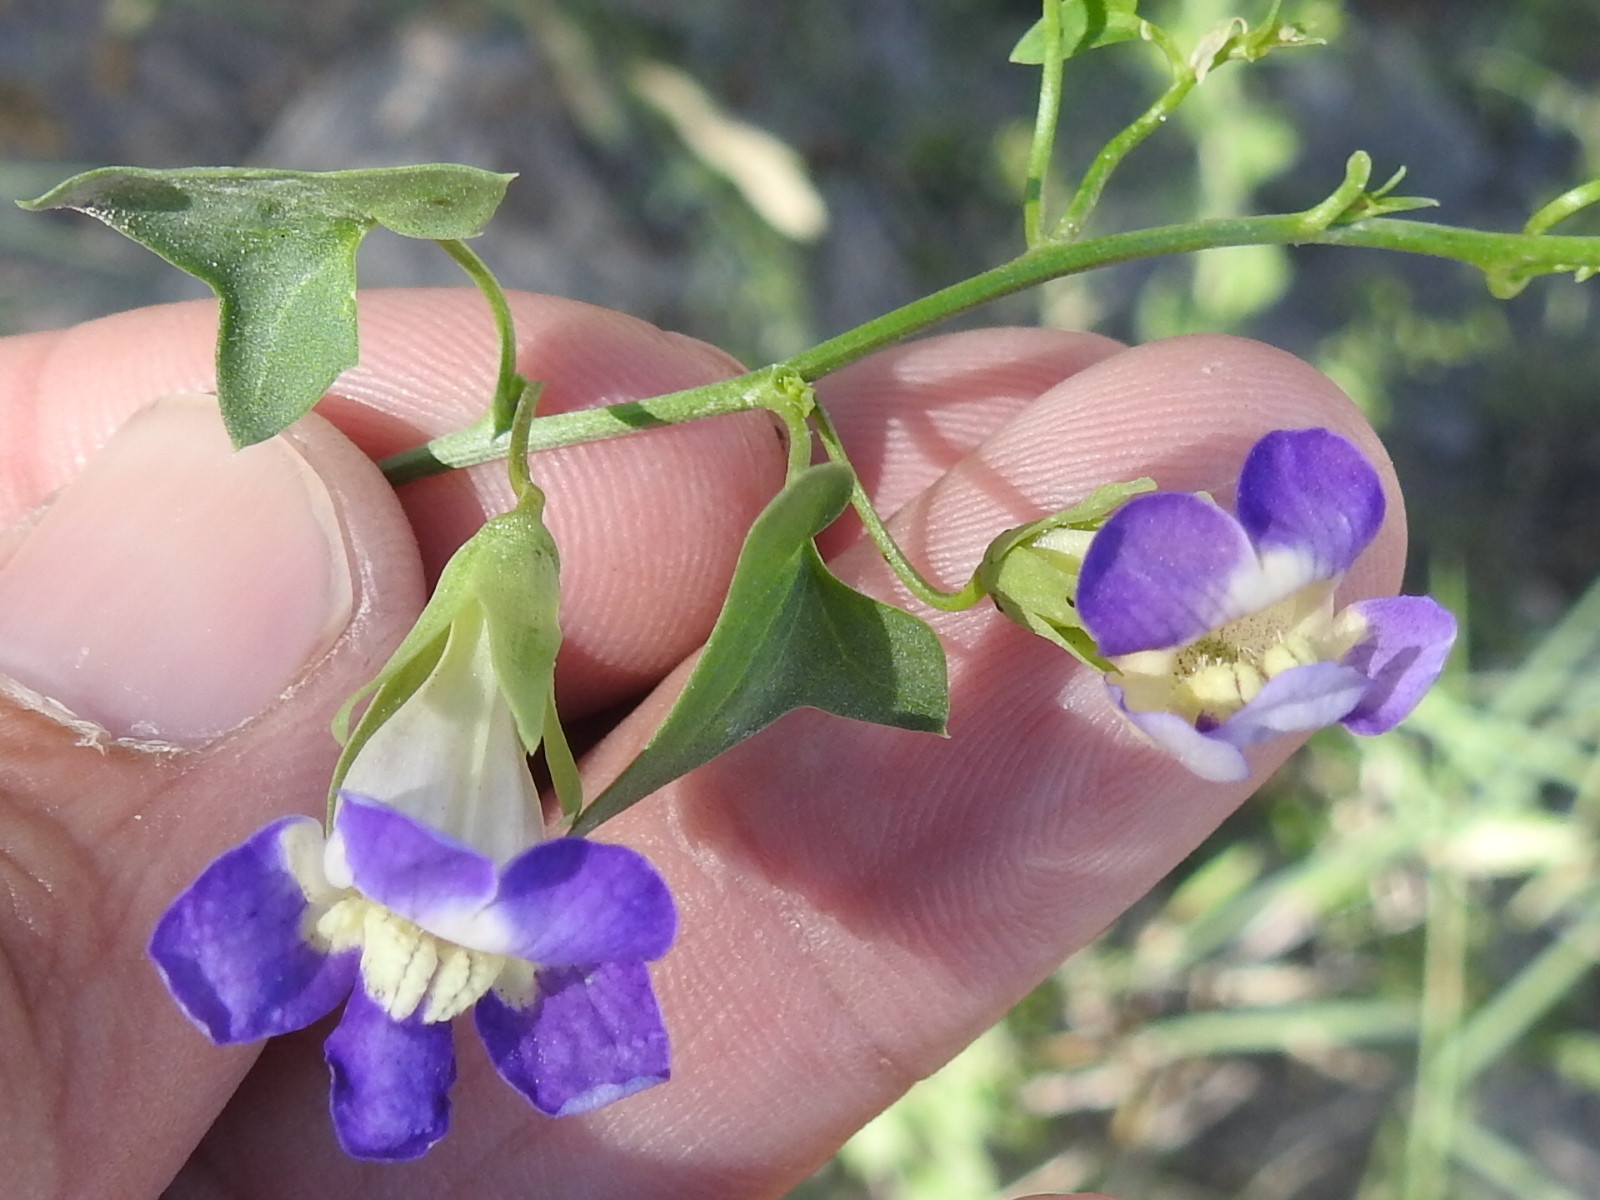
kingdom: Plantae
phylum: Tracheophyta
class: Magnoliopsida
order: Lamiales
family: Plantaginaceae
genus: Maurandella
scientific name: Maurandella antirrhiniflora
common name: Violet twining-snapdragon
